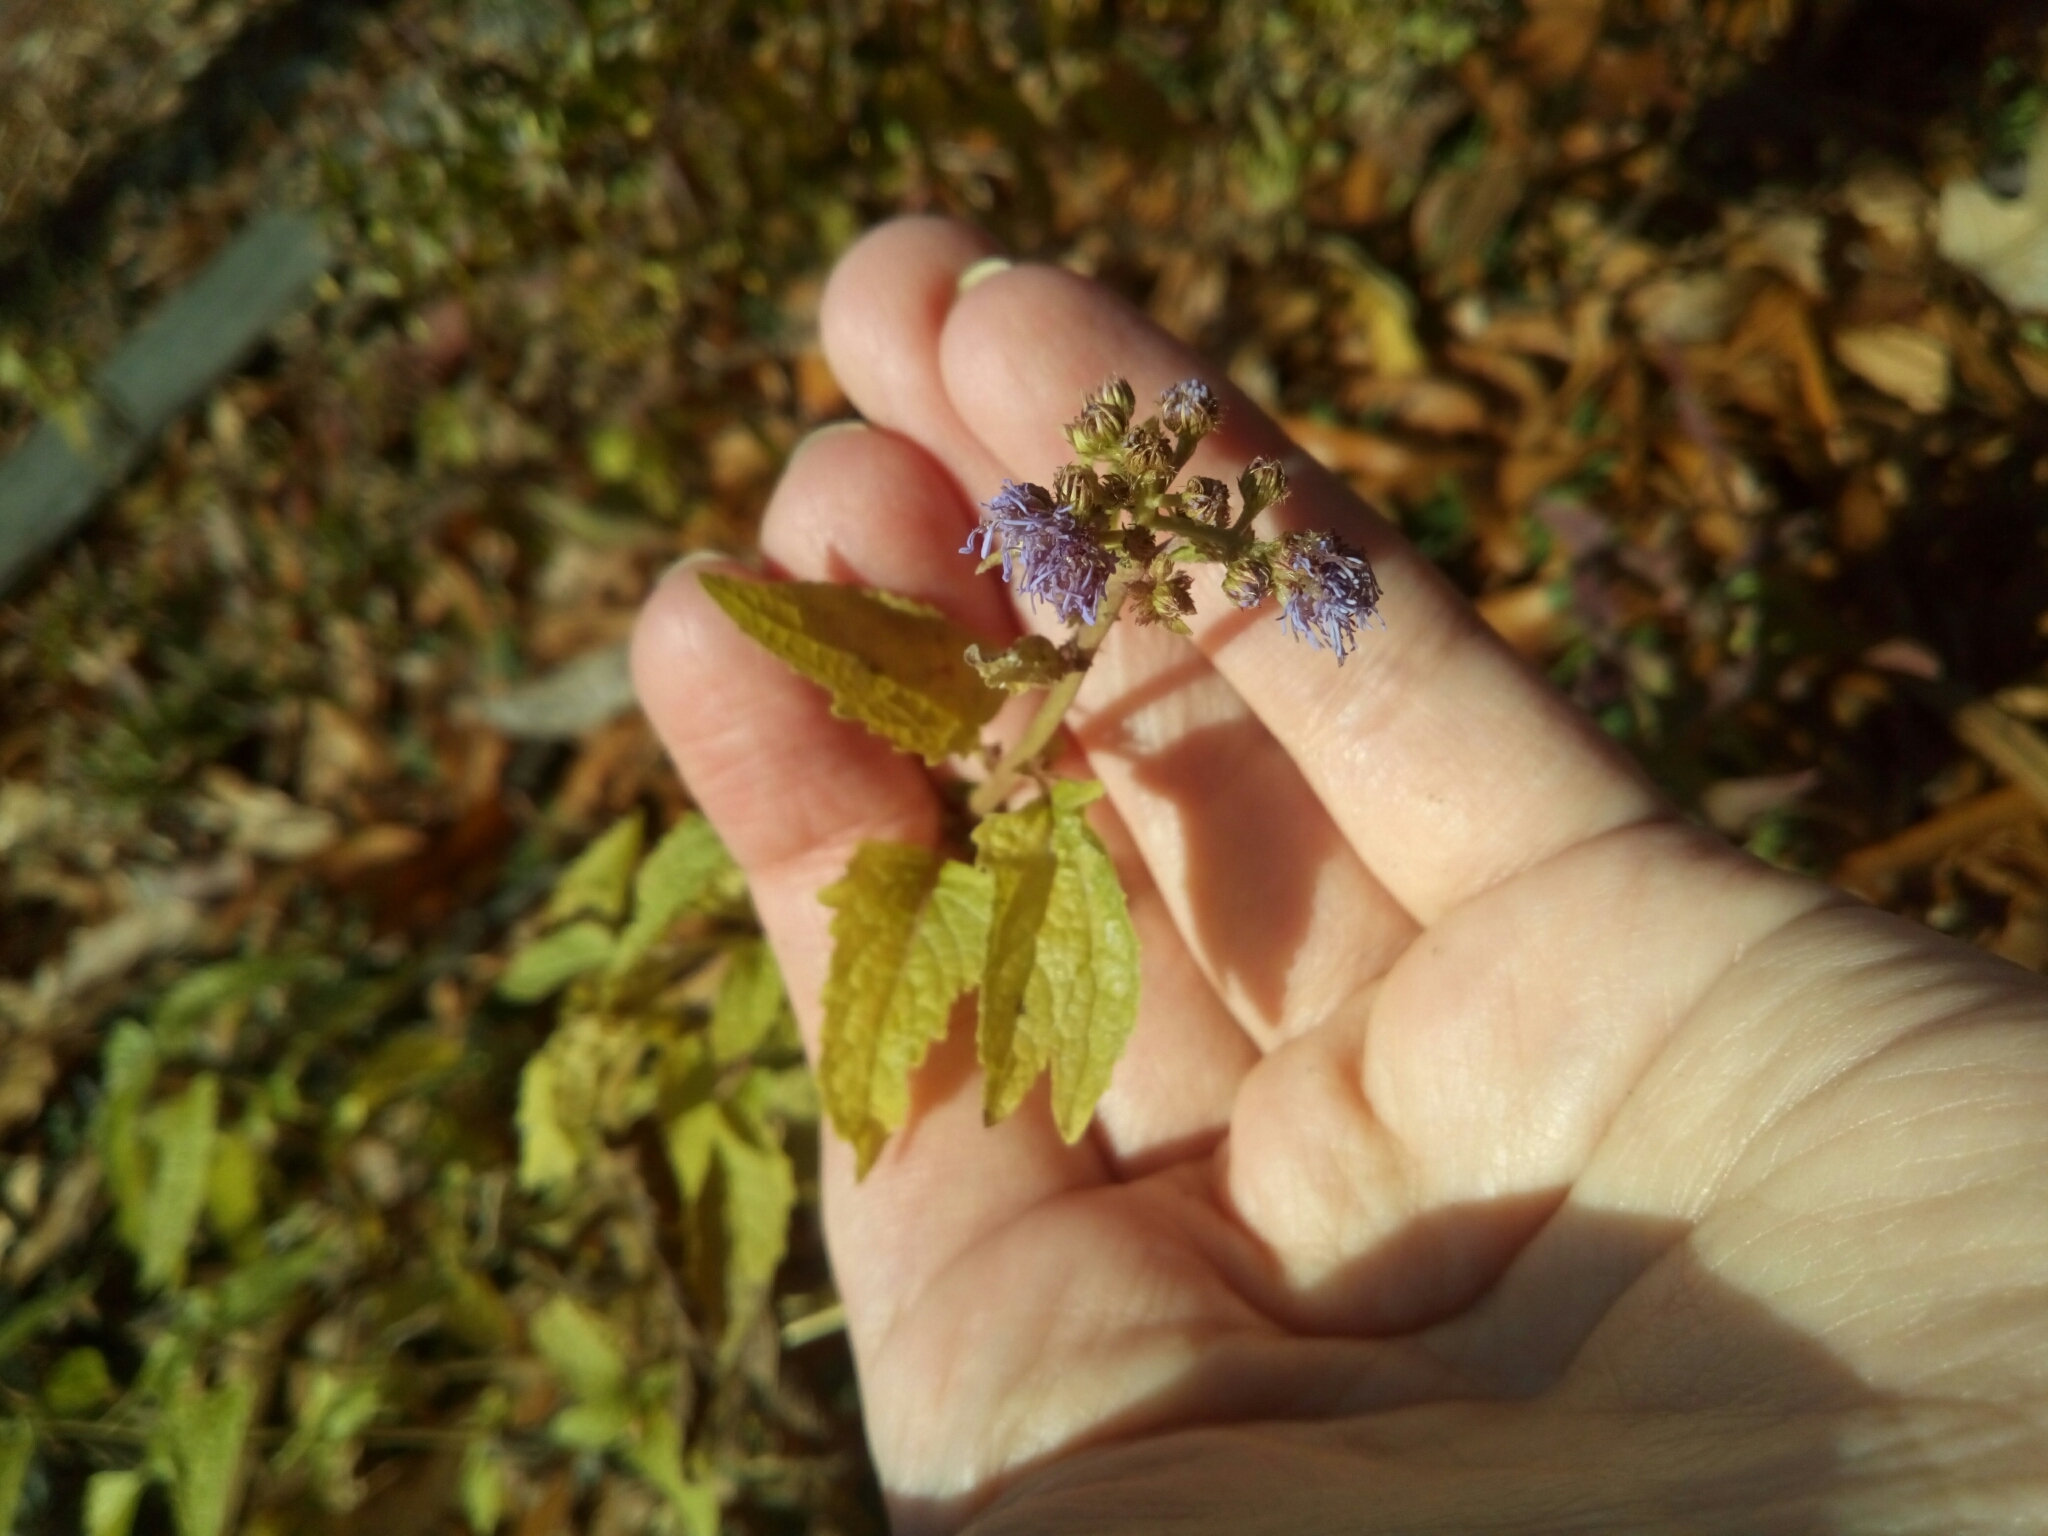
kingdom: Plantae
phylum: Tracheophyta
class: Magnoliopsida
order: Asterales
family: Asteraceae
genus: Conoclinium
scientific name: Conoclinium coelestinum
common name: Blue mistflower
